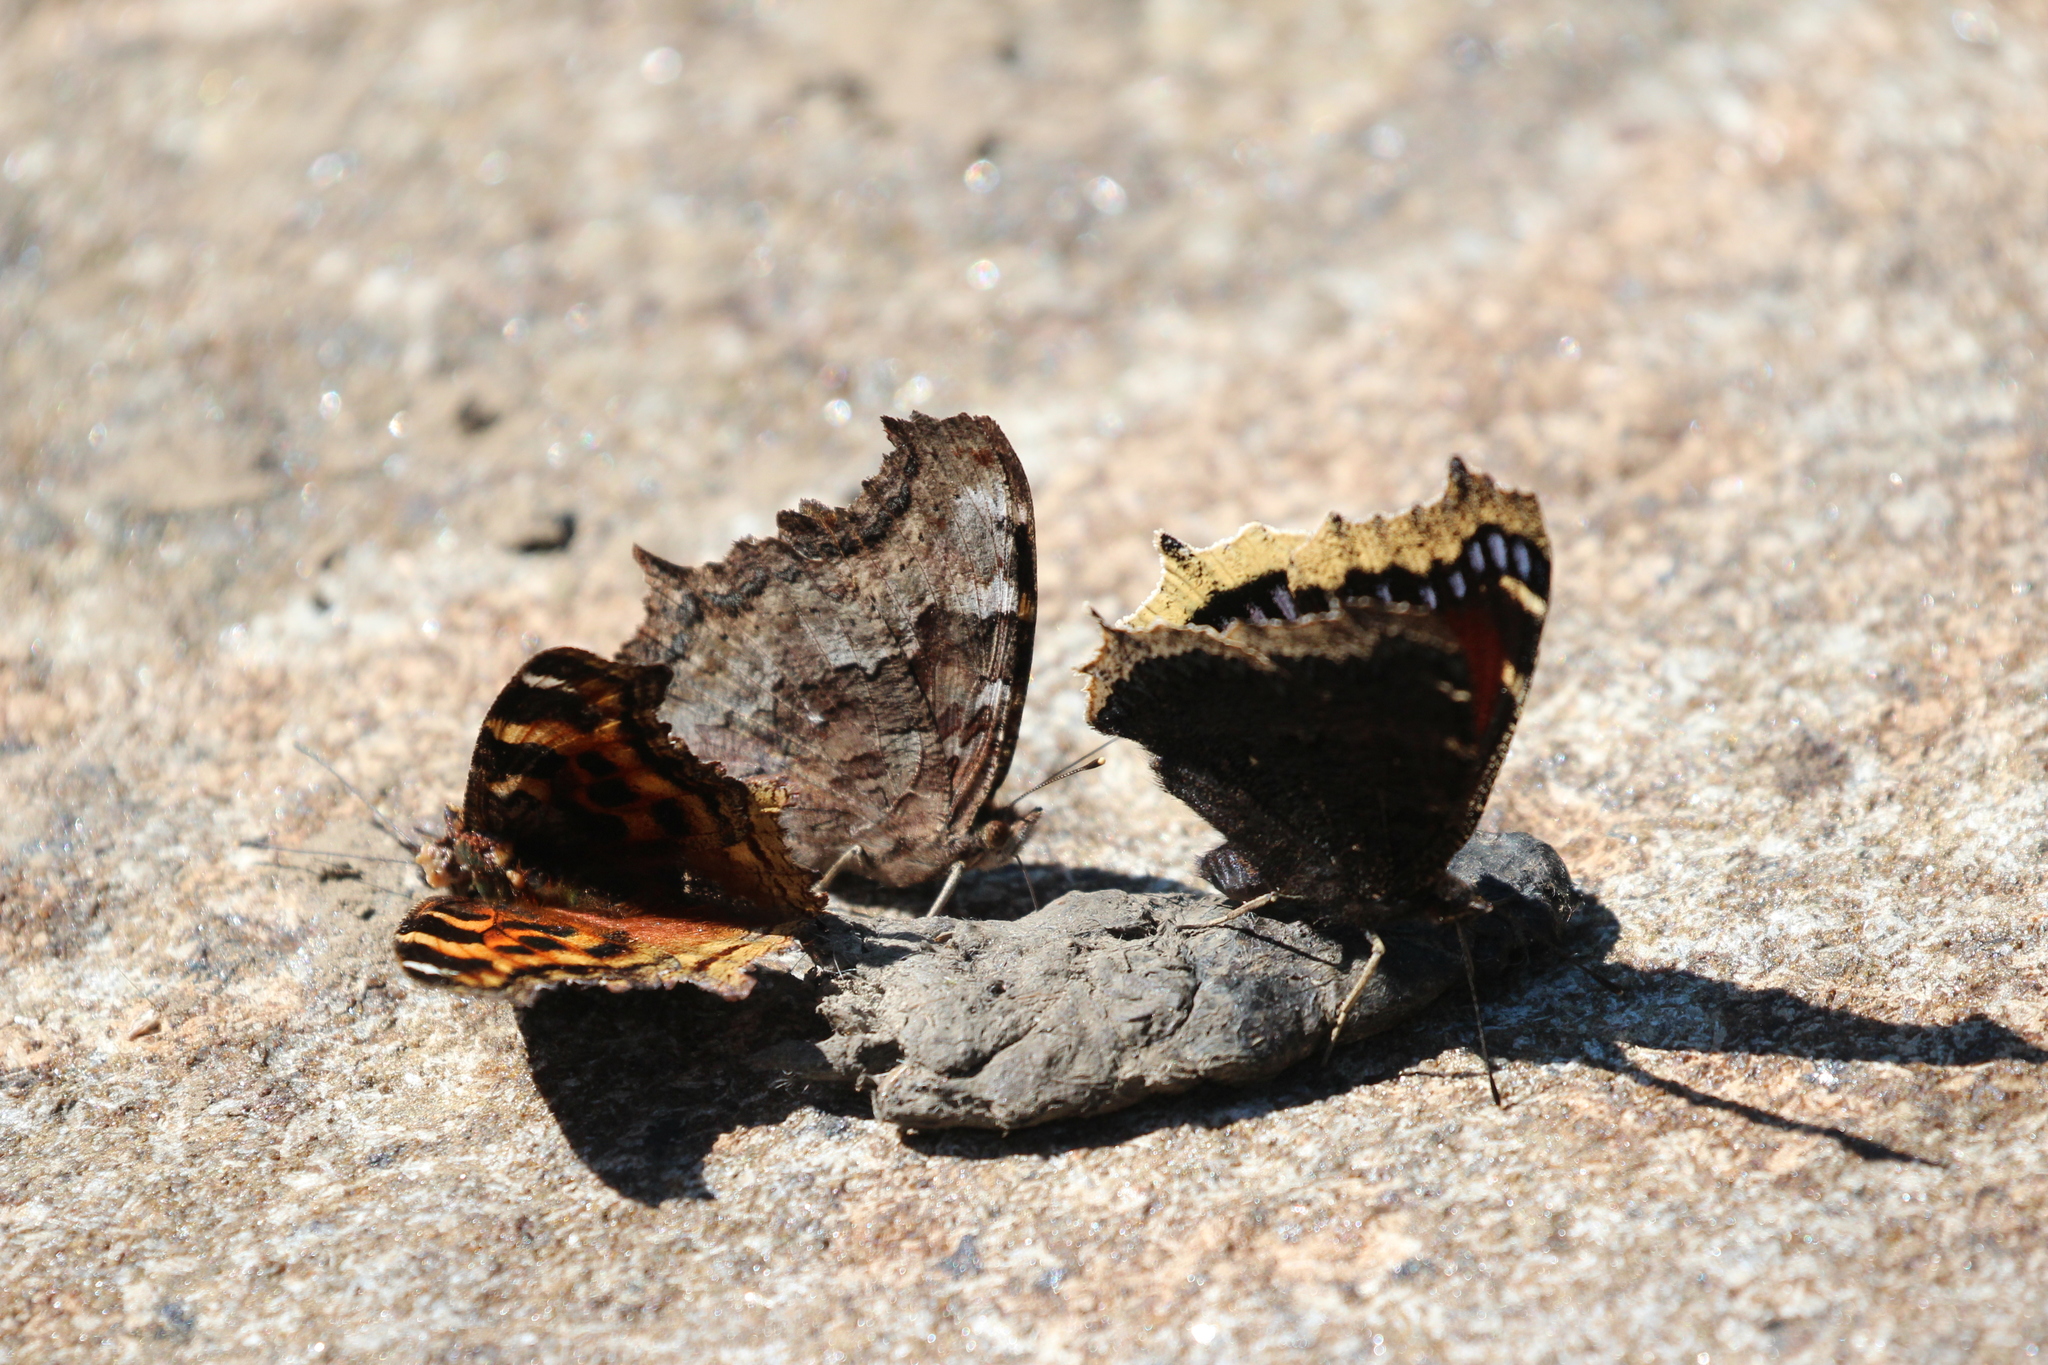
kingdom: Animalia
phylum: Arthropoda
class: Insecta
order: Lepidoptera
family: Nymphalidae
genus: Nymphalis
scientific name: Nymphalis antiopa
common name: Camberwell beauty
